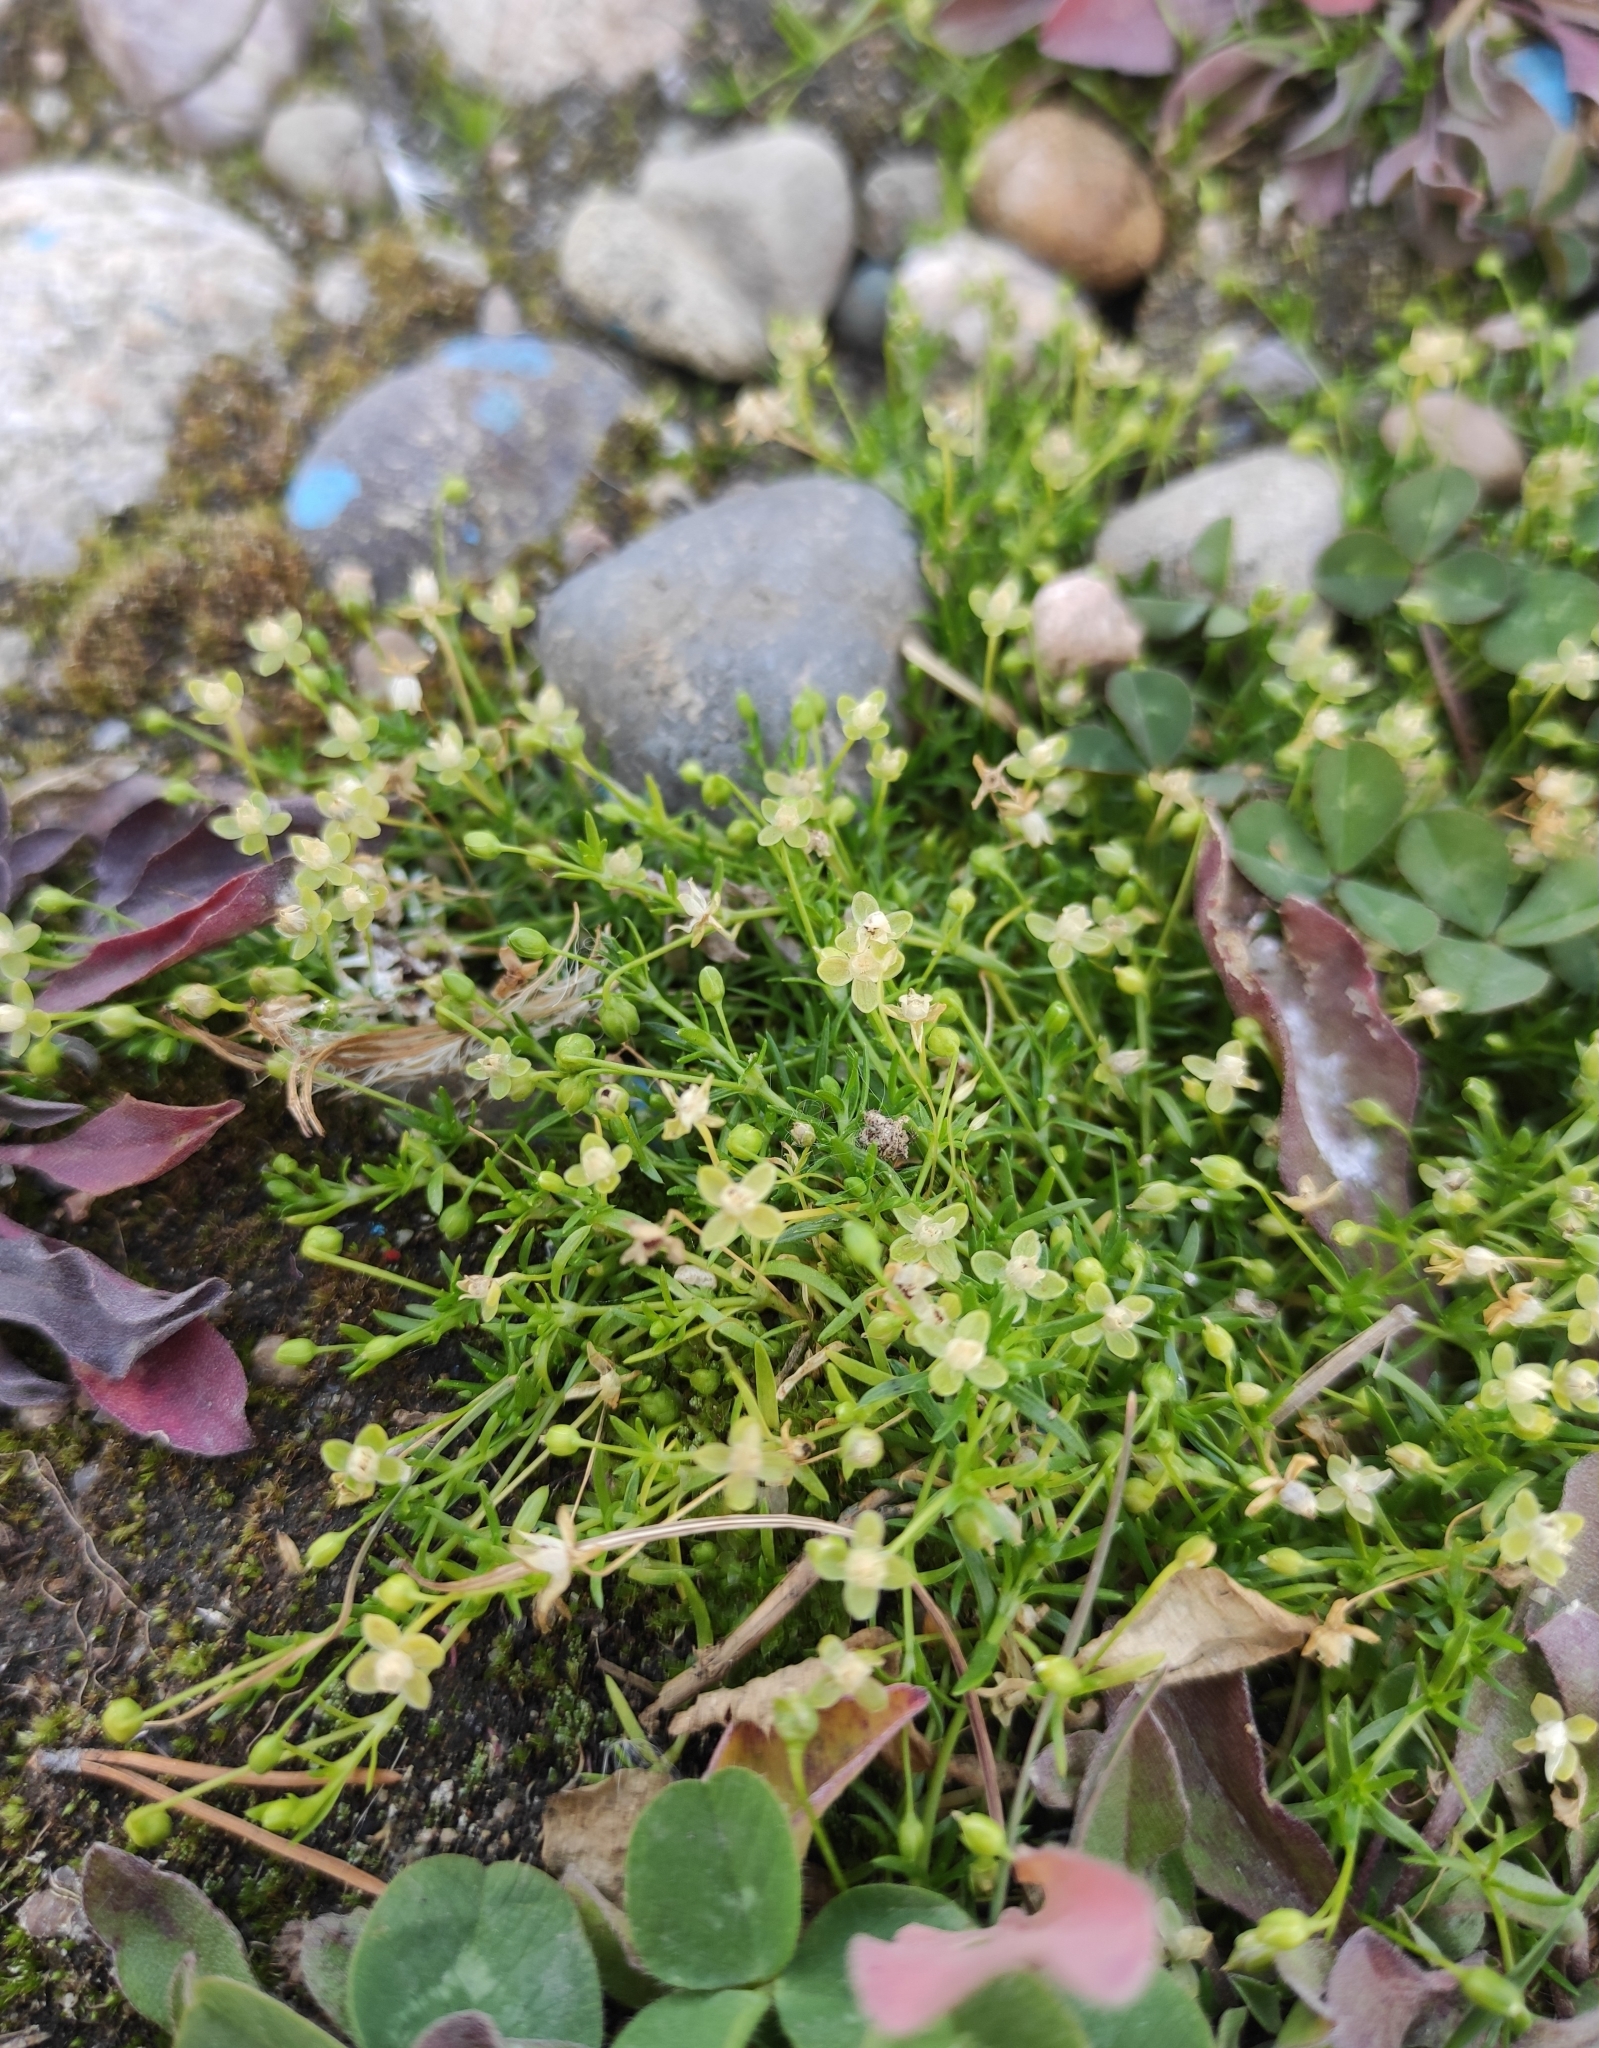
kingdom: Plantae
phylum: Tracheophyta
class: Magnoliopsida
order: Caryophyllales
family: Caryophyllaceae
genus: Sagina
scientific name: Sagina procumbens
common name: Procumbent pearlwort
